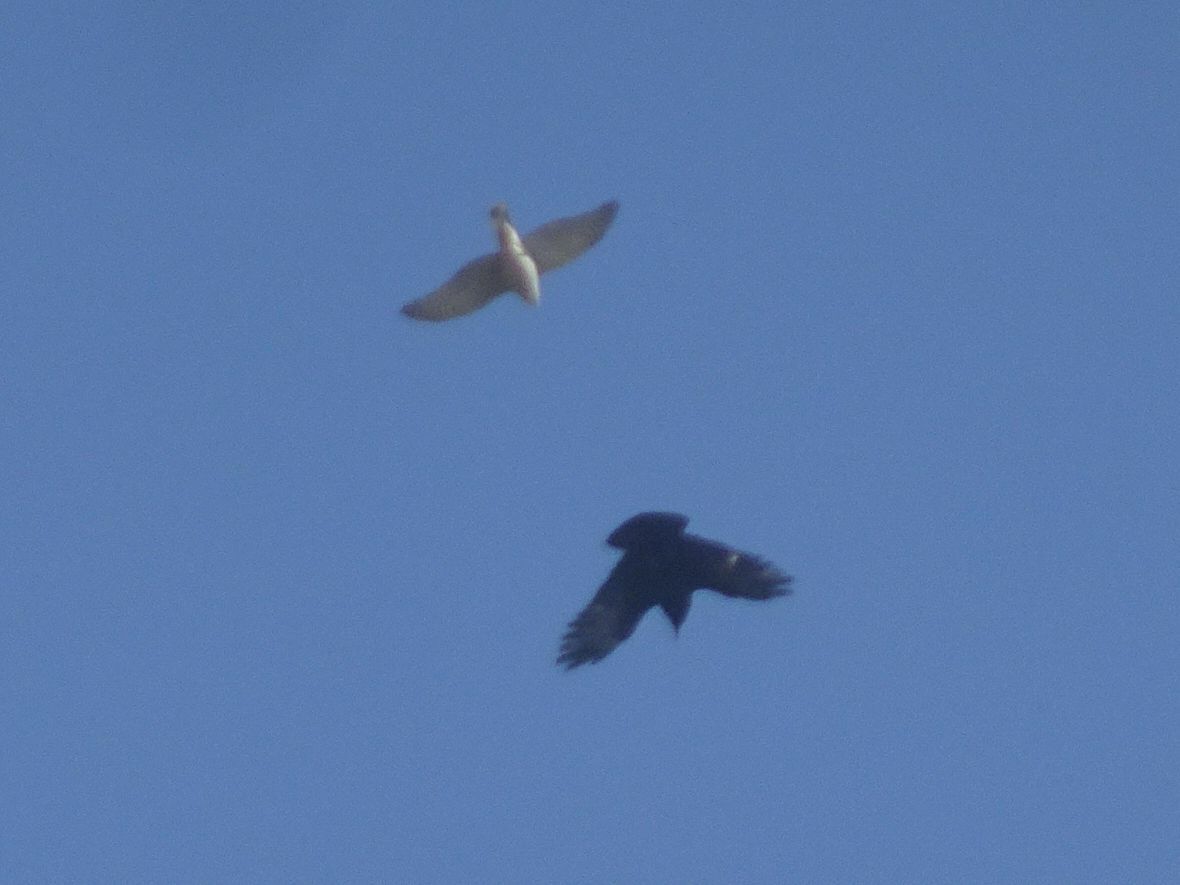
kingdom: Animalia
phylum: Chordata
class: Aves
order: Accipitriformes
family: Accipitridae
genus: Accipiter
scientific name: Accipiter nisus
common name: Eurasian sparrowhawk
